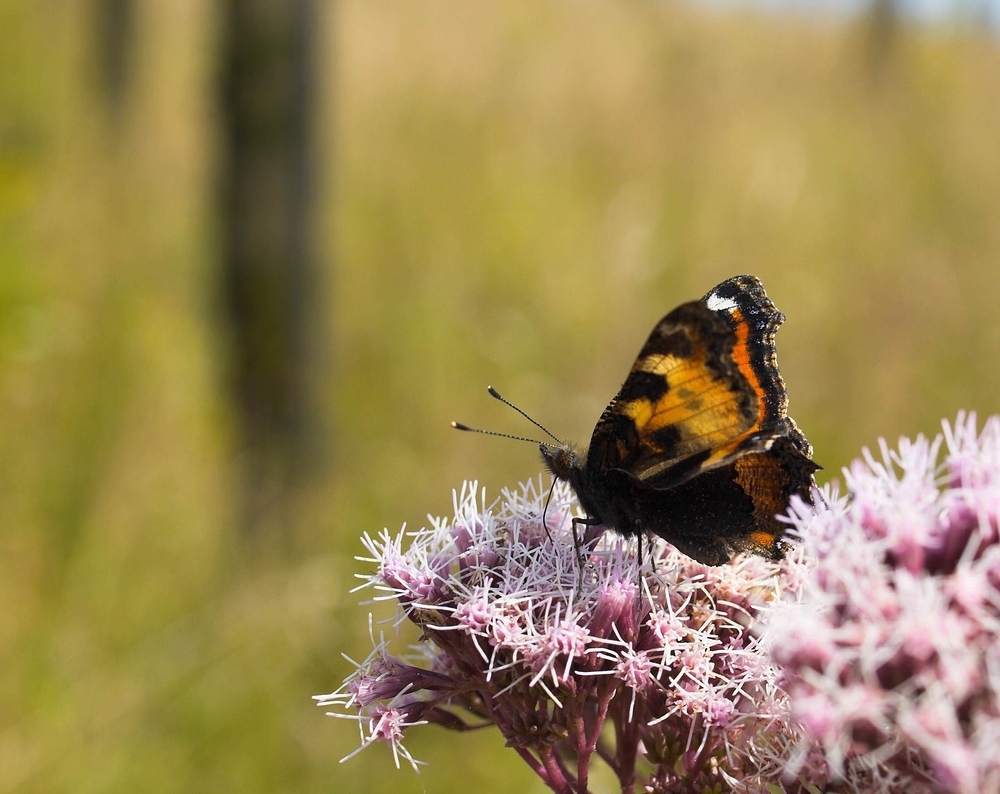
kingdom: Animalia
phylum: Arthropoda
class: Insecta
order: Lepidoptera
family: Nymphalidae
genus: Aglais
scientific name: Aglais urticae
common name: Small tortoiseshell
